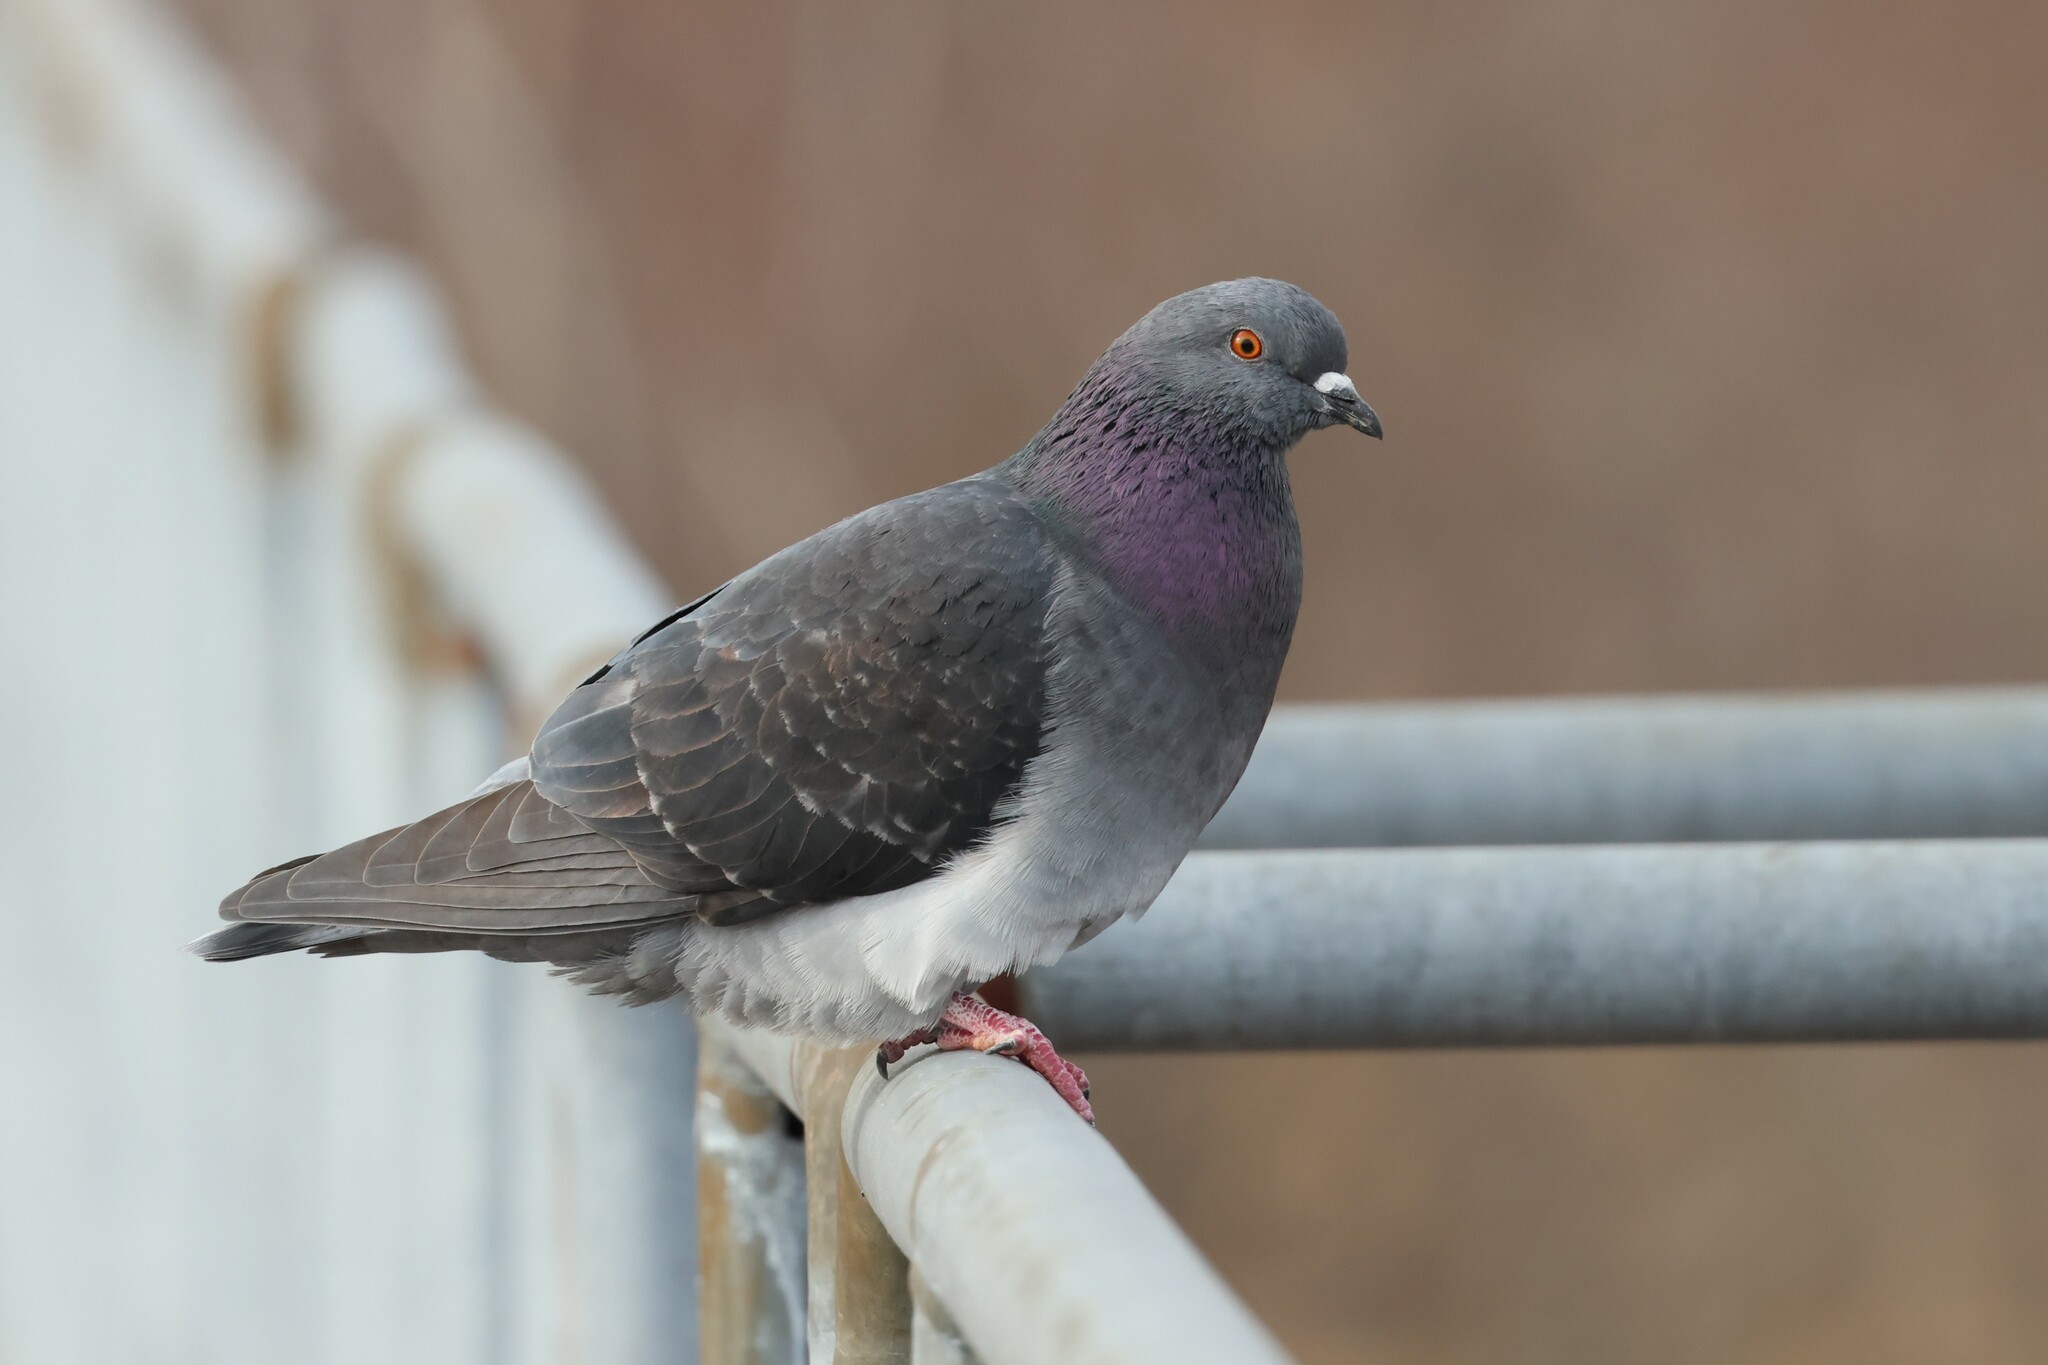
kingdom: Animalia
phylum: Chordata
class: Aves
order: Columbiformes
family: Columbidae
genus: Columba
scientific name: Columba livia
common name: Rock pigeon
